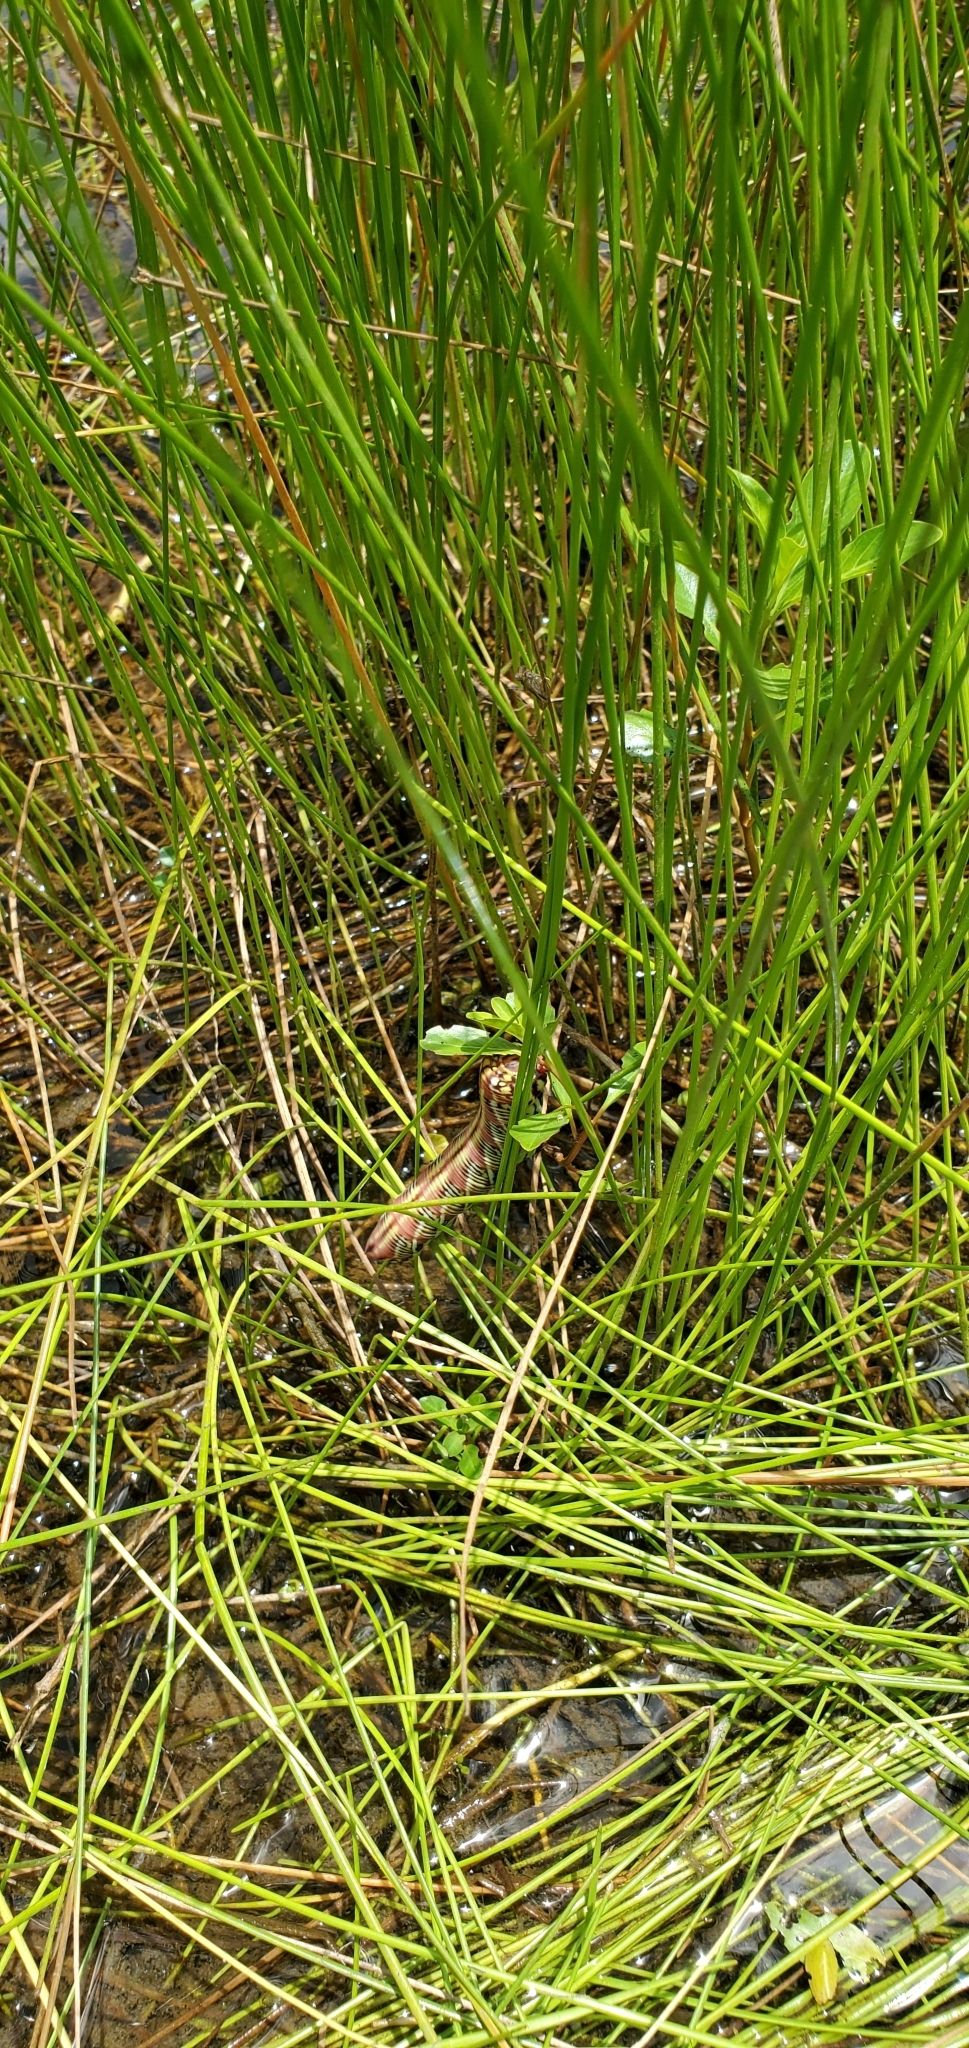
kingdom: Animalia
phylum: Arthropoda
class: Insecta
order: Lepidoptera
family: Sphingidae
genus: Eumorpha
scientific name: Eumorpha fasciatus
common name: Banded sphinx
